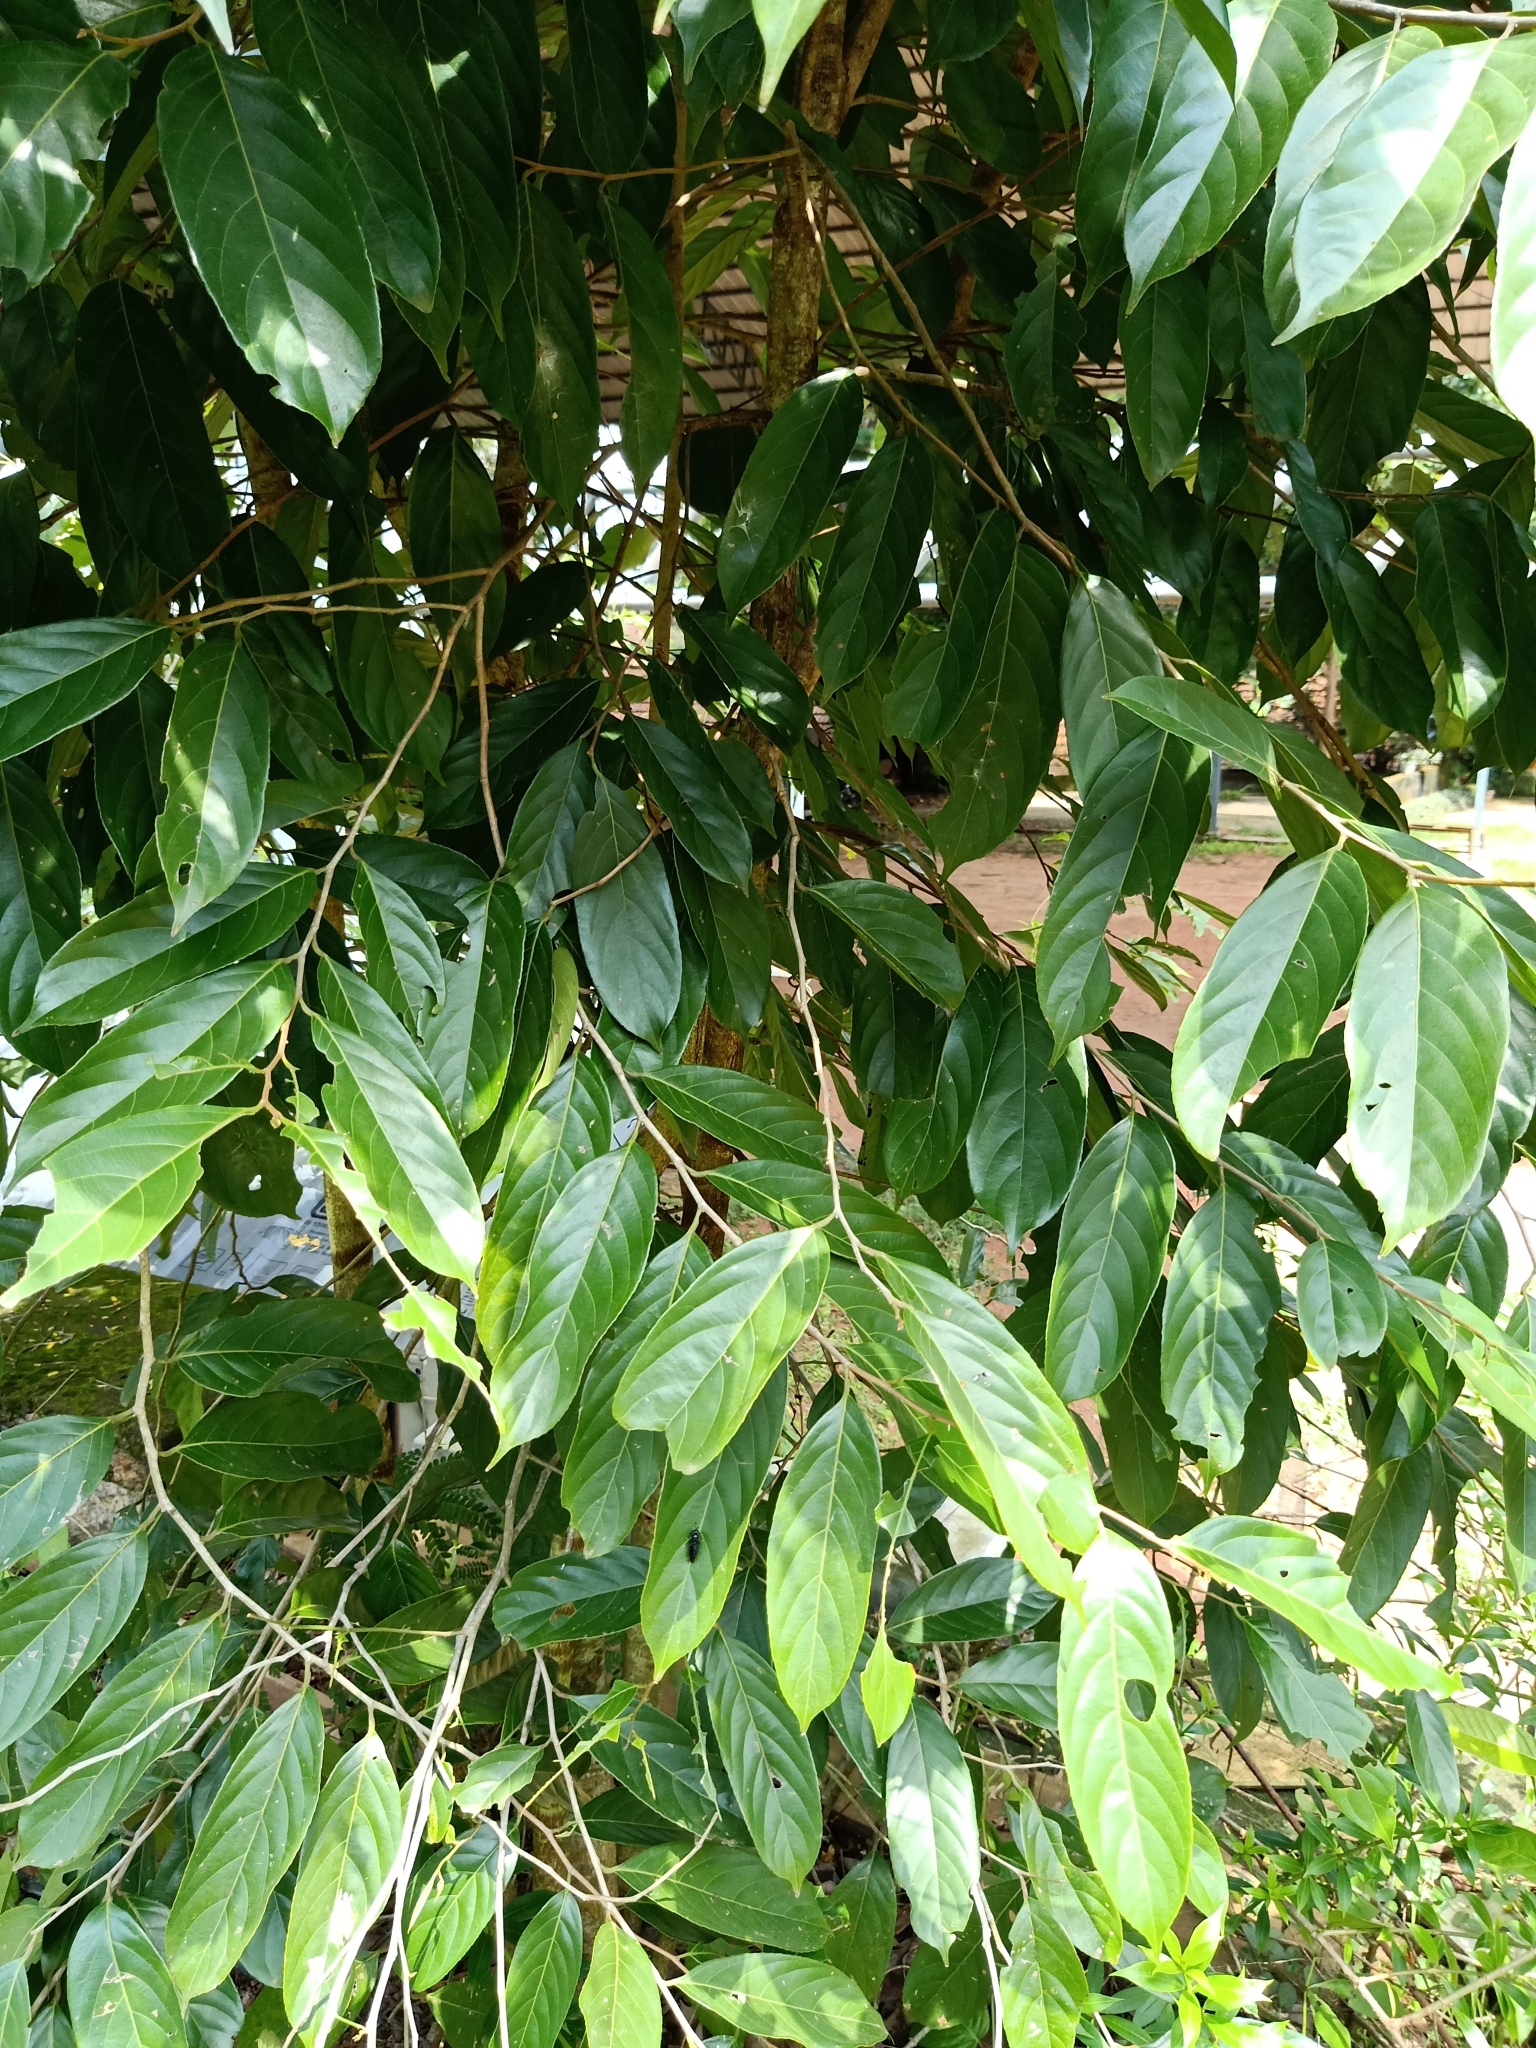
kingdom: Plantae
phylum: Tracheophyta
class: Magnoliopsida
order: Malpighiales
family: Achariaceae
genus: Hydnocarpus
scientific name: Hydnocarpus pentandrus
